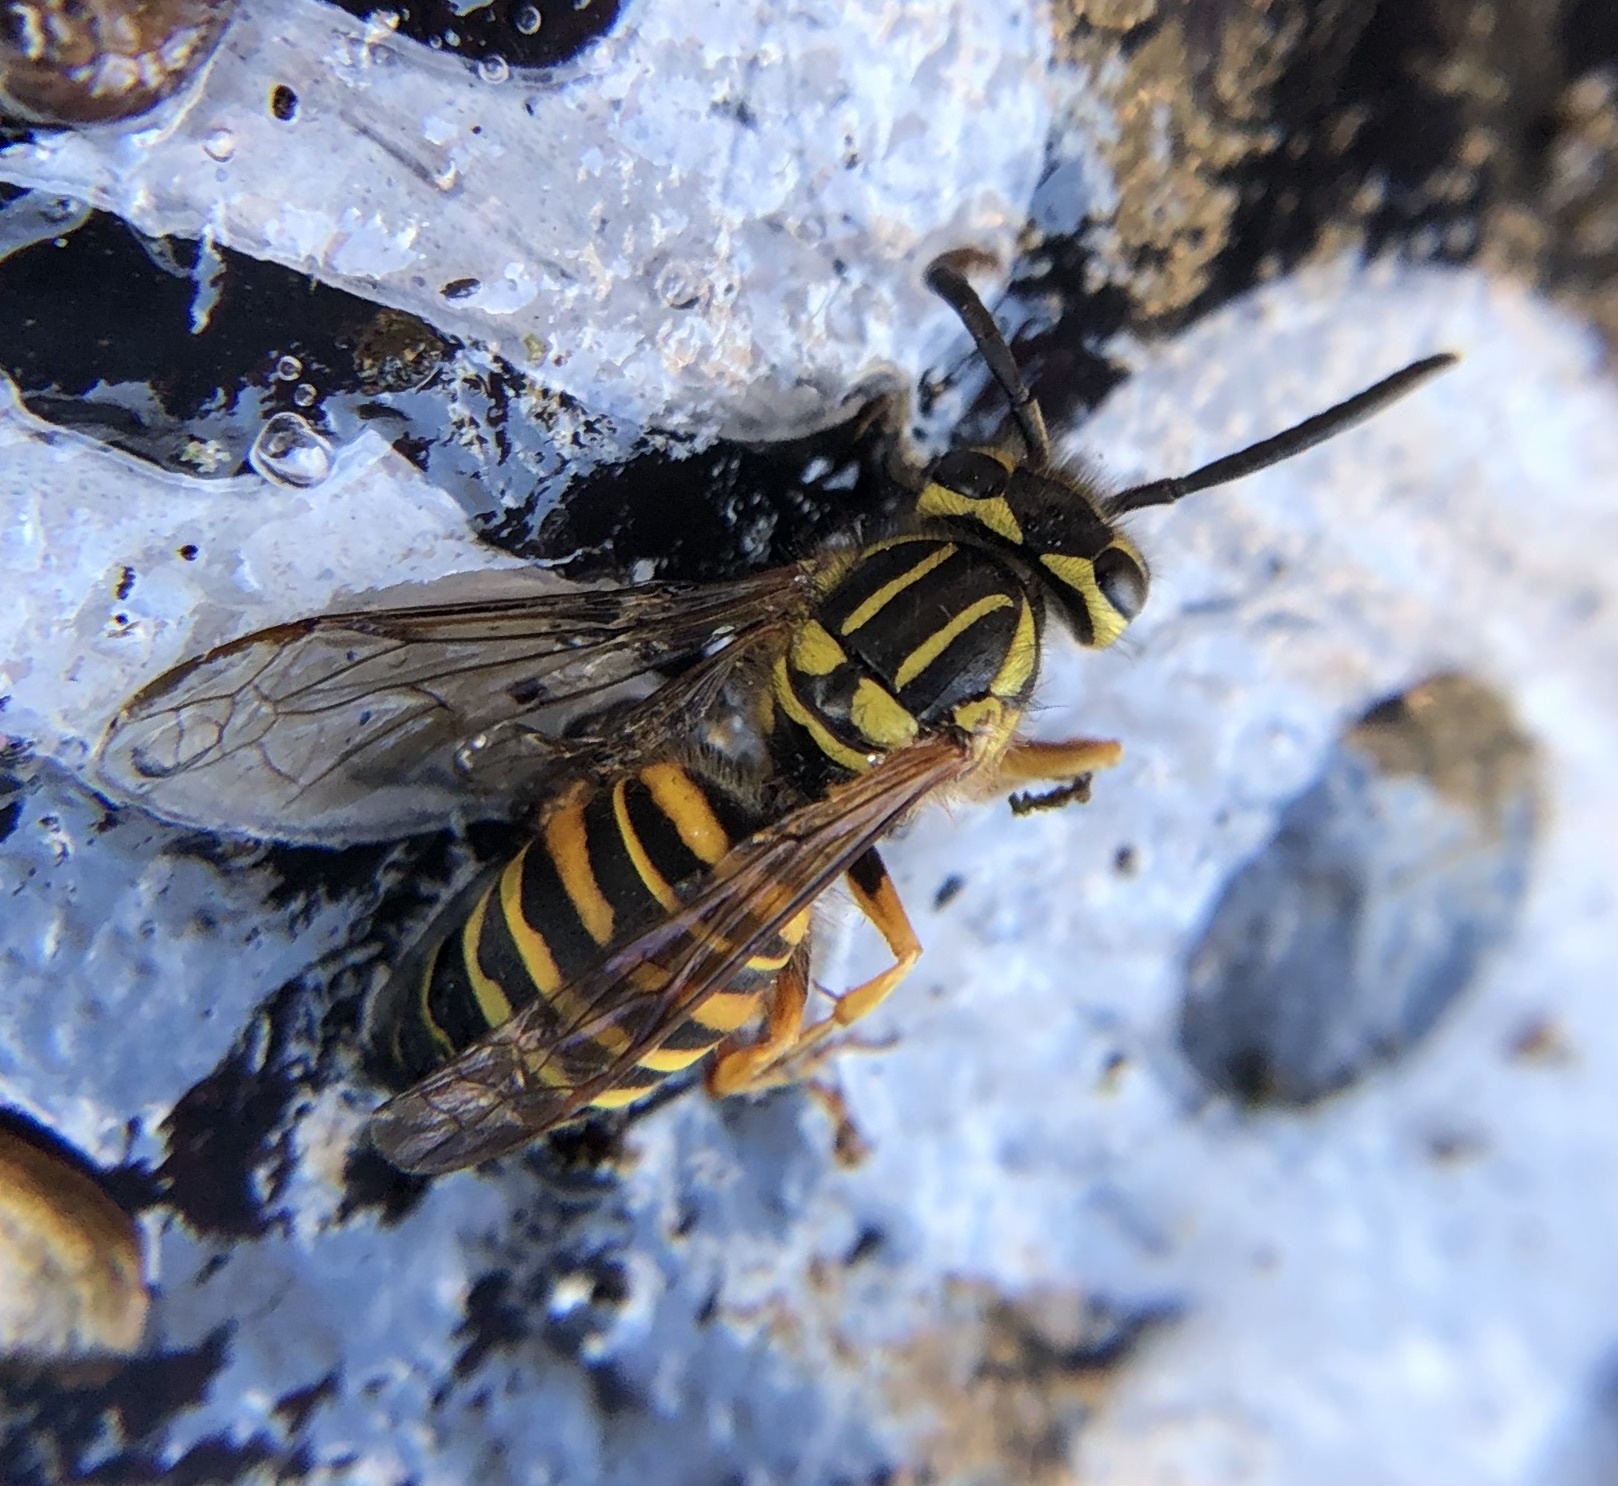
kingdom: Animalia
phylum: Arthropoda
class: Insecta
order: Hymenoptera
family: Vespidae
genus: Vespula
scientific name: Vespula squamosa
